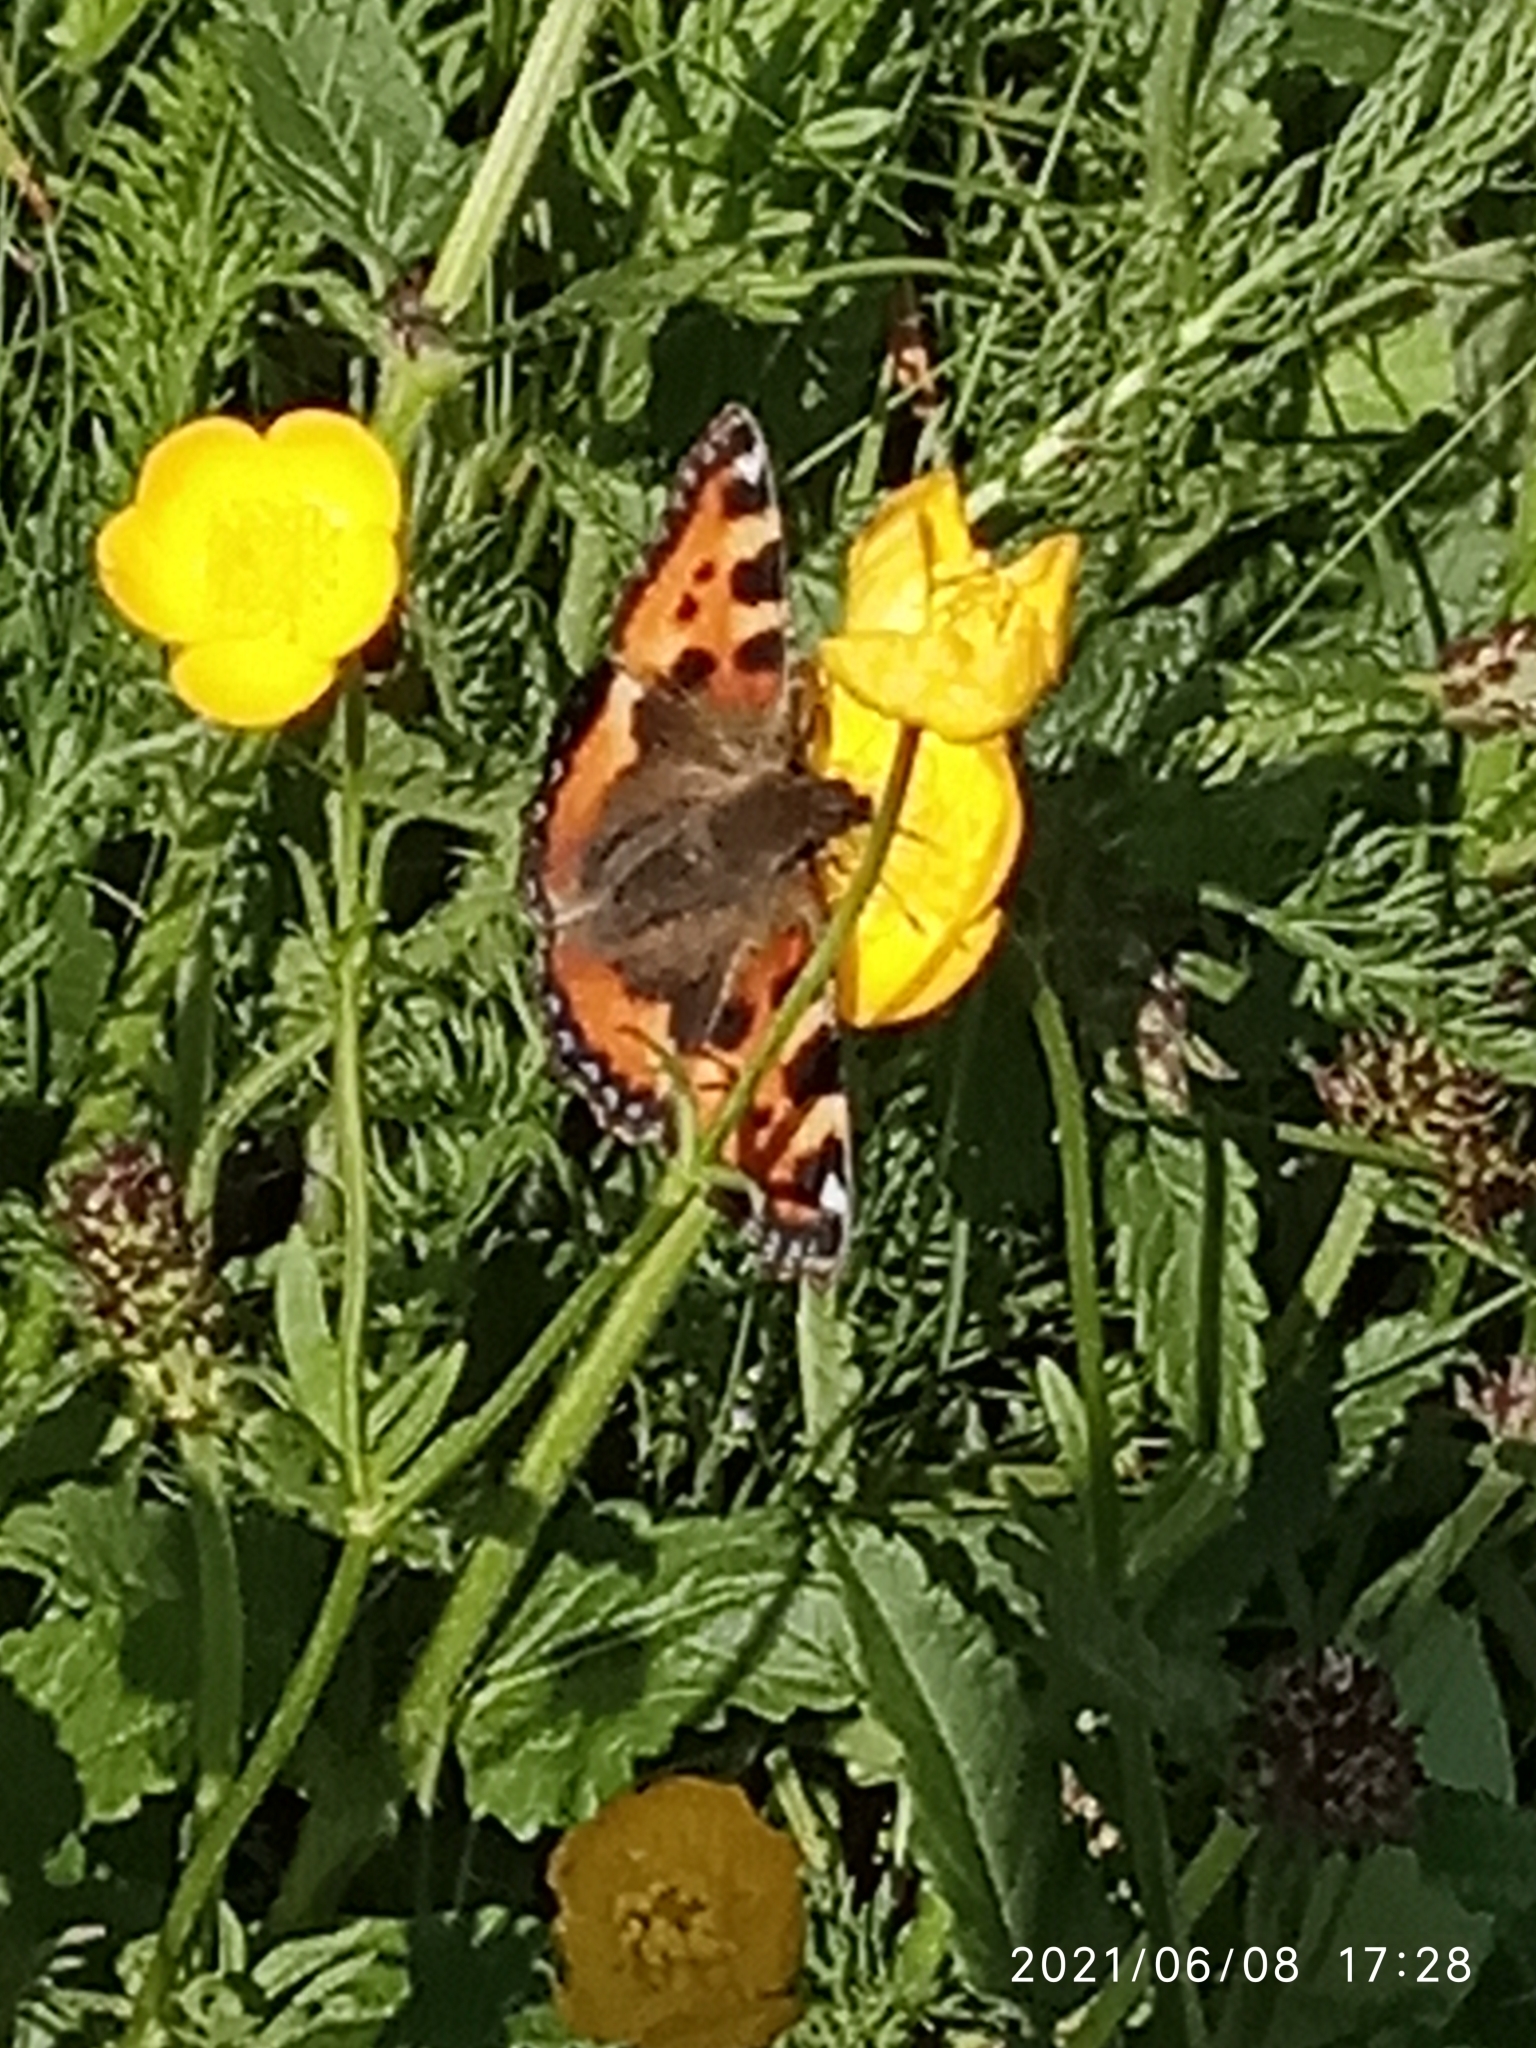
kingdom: Animalia
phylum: Arthropoda
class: Insecta
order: Lepidoptera
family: Nymphalidae
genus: Aglais
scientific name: Aglais urticae
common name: Small tortoiseshell
